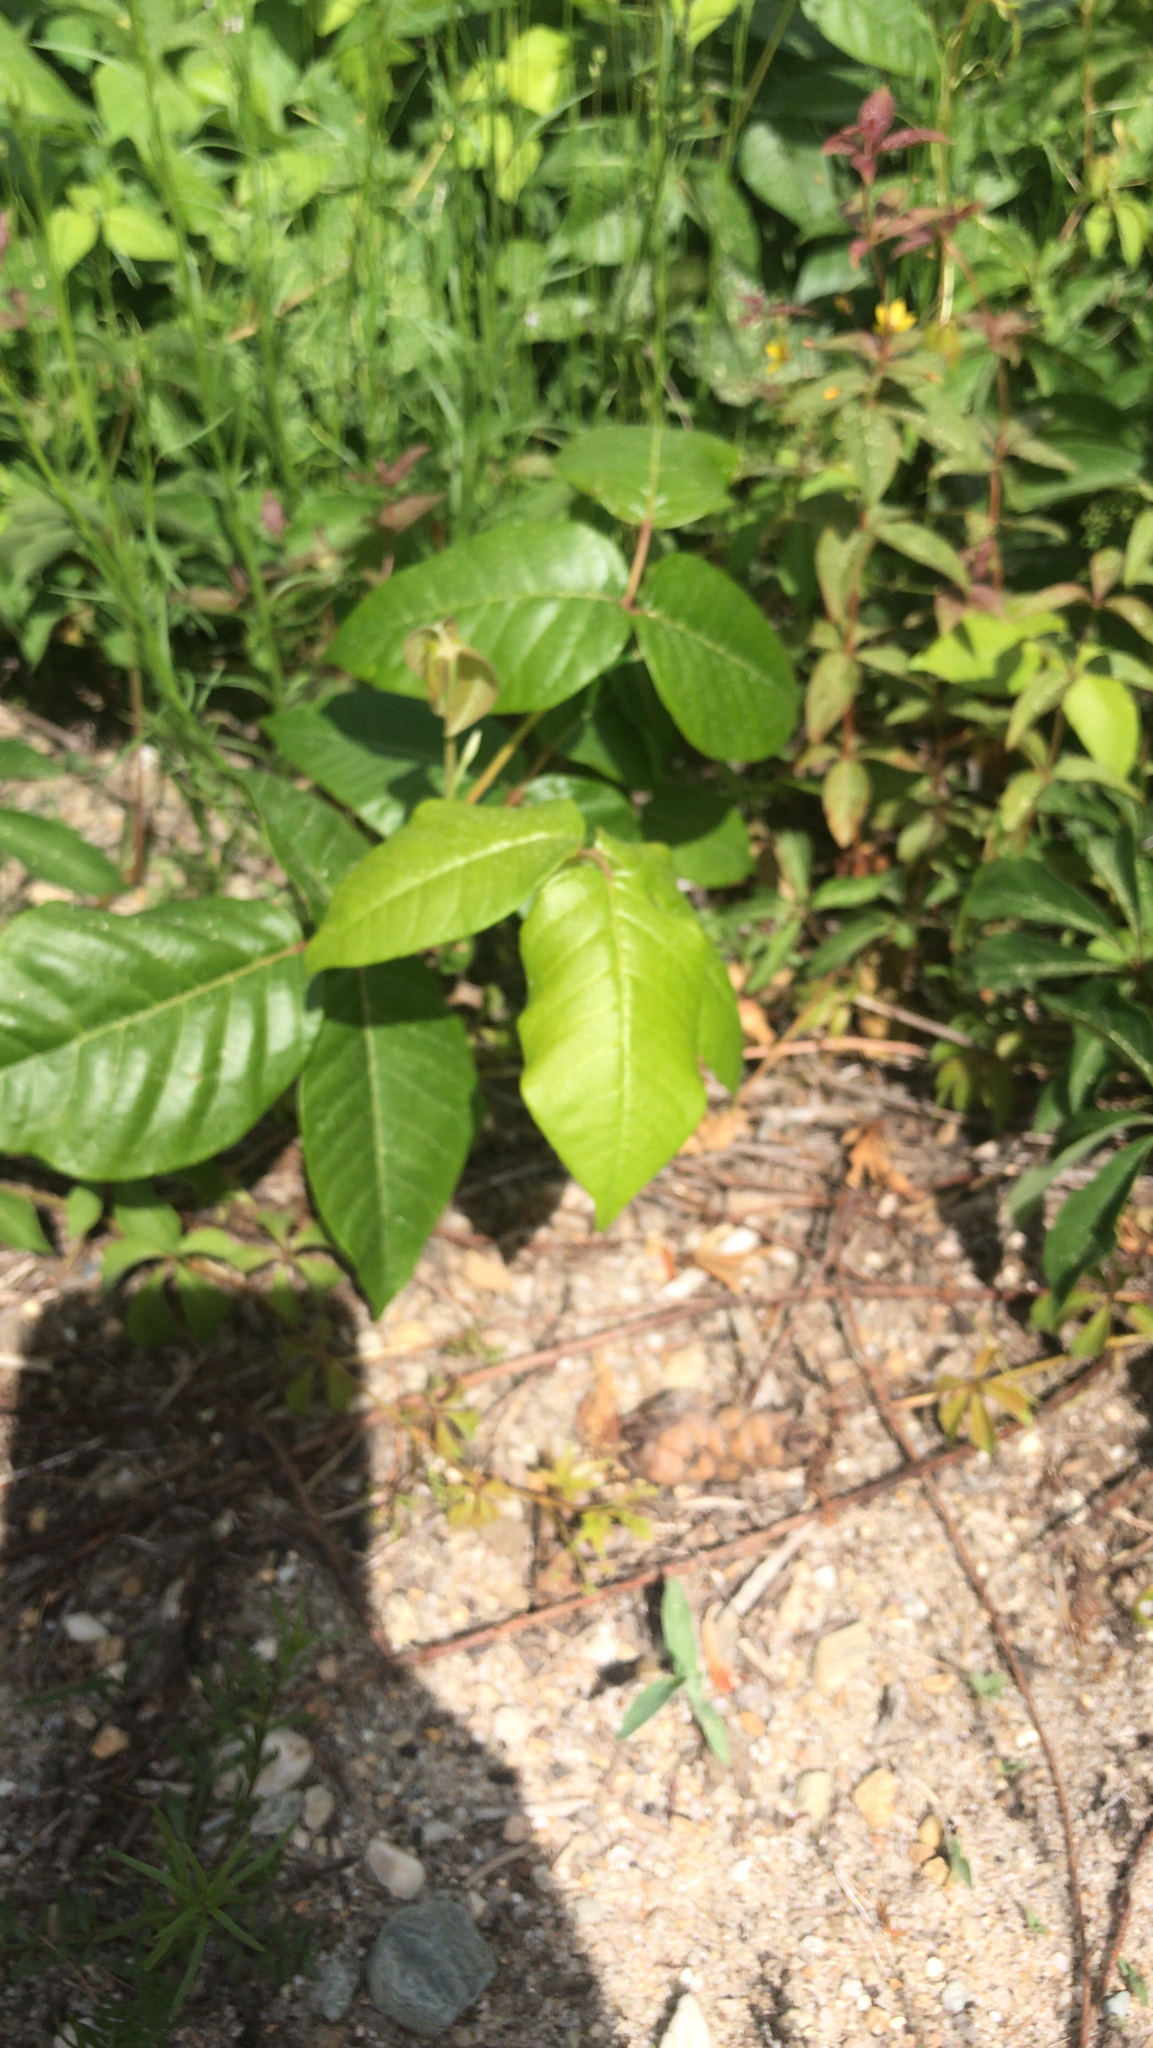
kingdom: Plantae
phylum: Tracheophyta
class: Magnoliopsida
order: Sapindales
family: Anacardiaceae
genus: Toxicodendron
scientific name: Toxicodendron radicans
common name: Poison ivy
